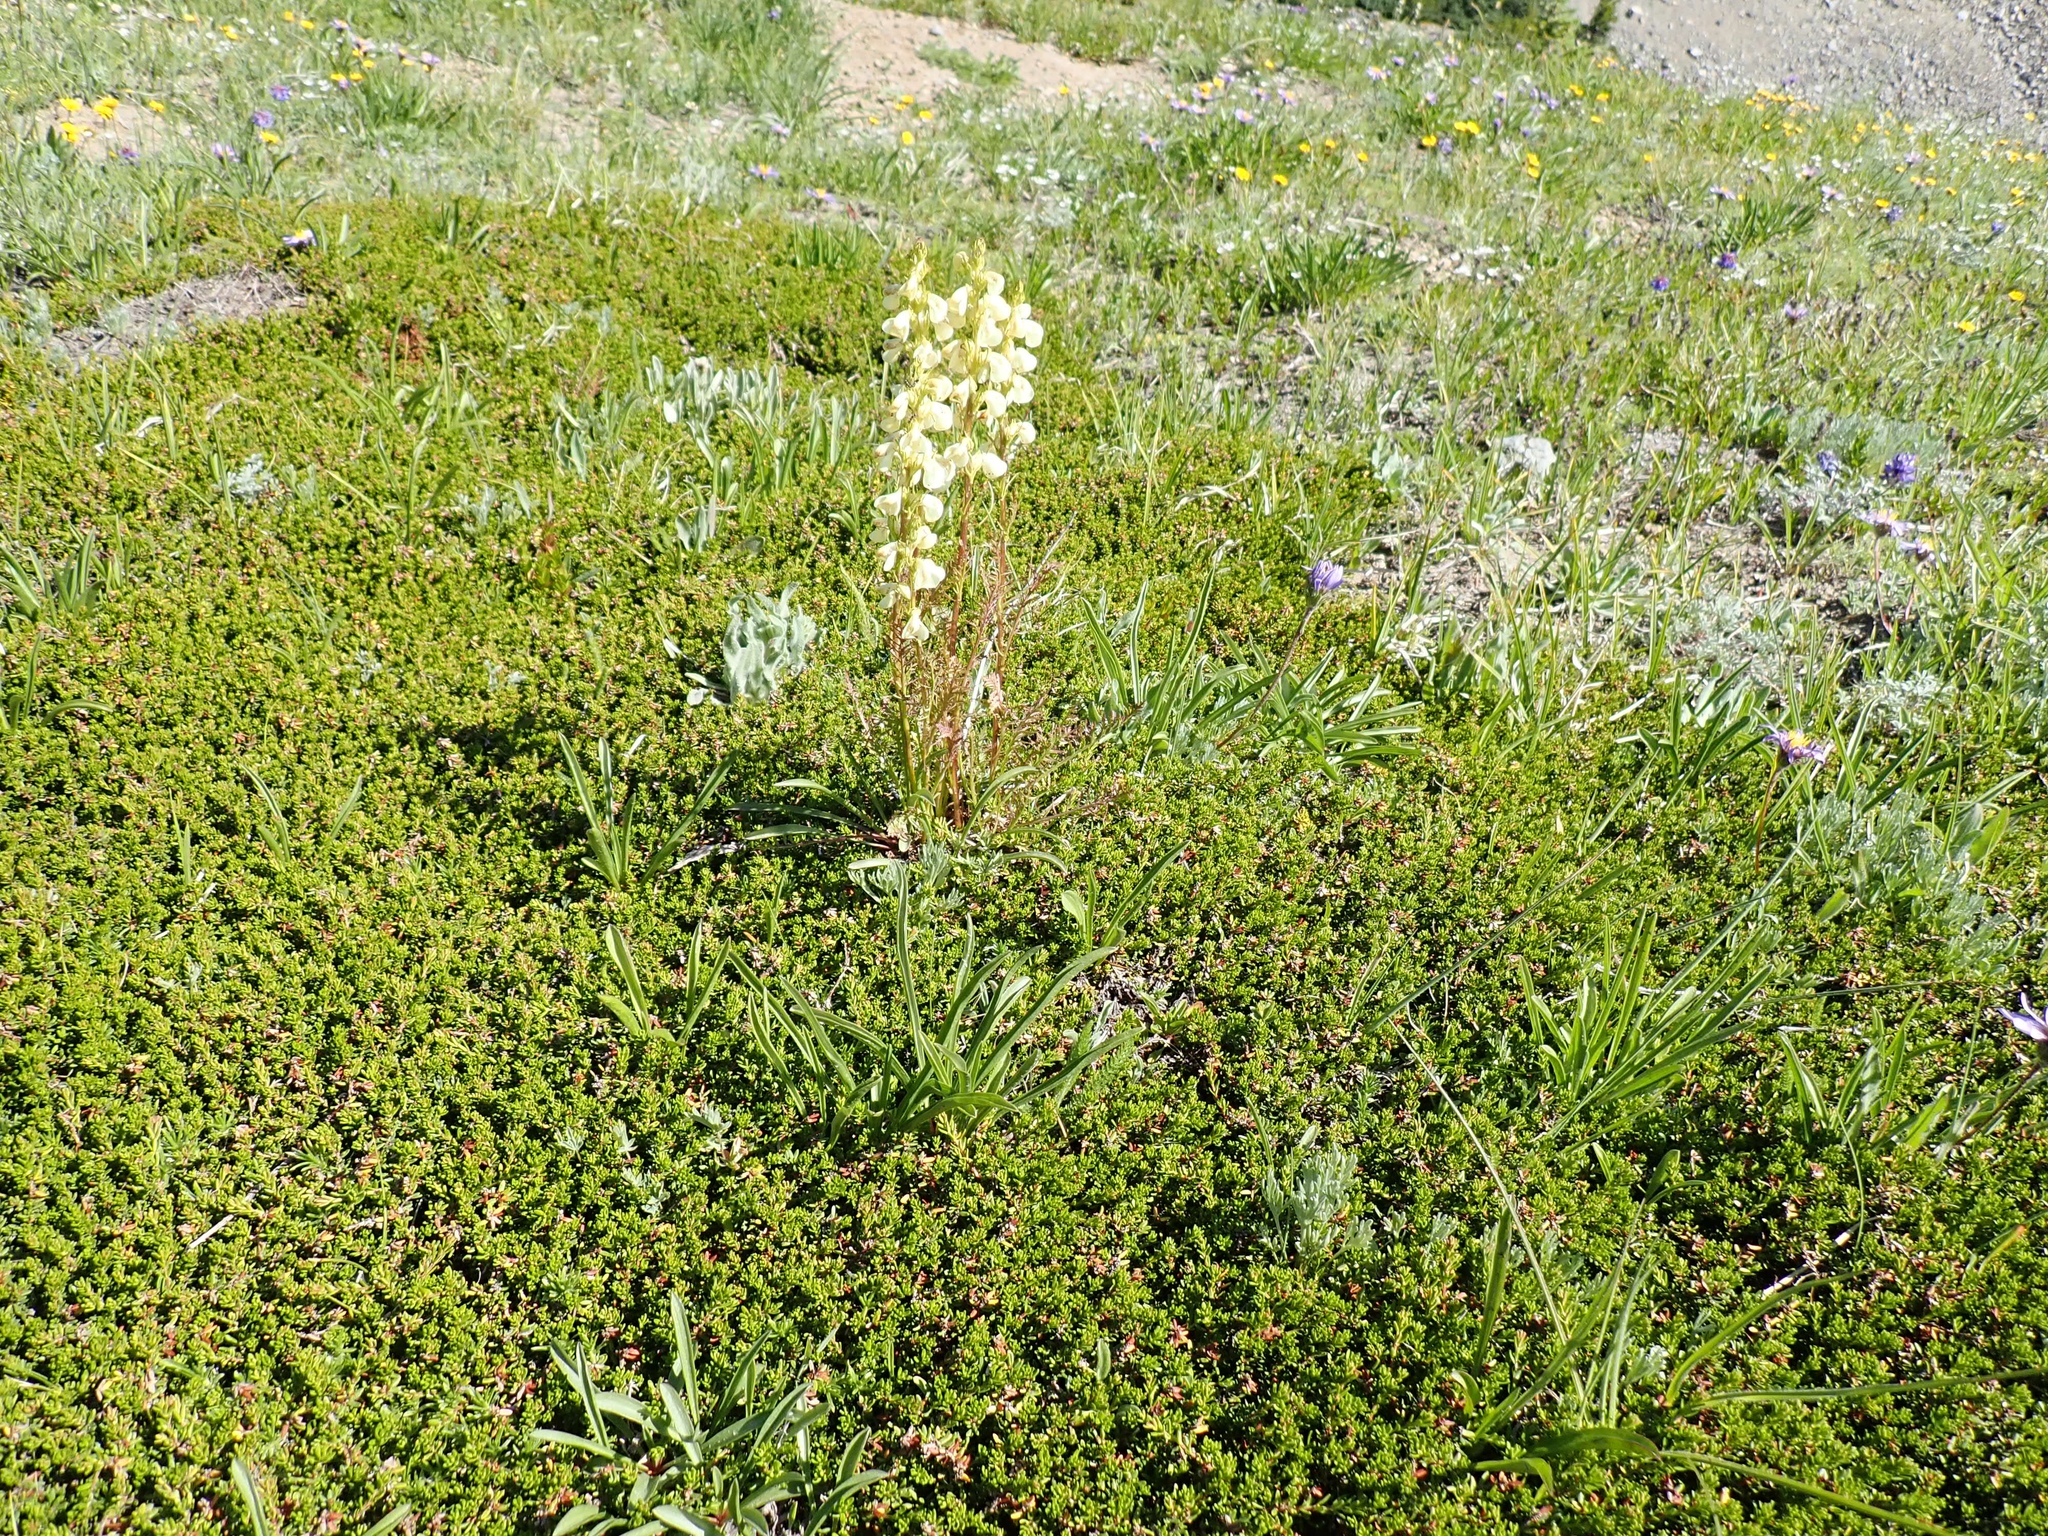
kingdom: Plantae
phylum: Tracheophyta
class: Magnoliopsida
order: Lamiales
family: Orobanchaceae
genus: Pedicularis
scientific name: Pedicularis contorta
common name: Coiled lousewort
